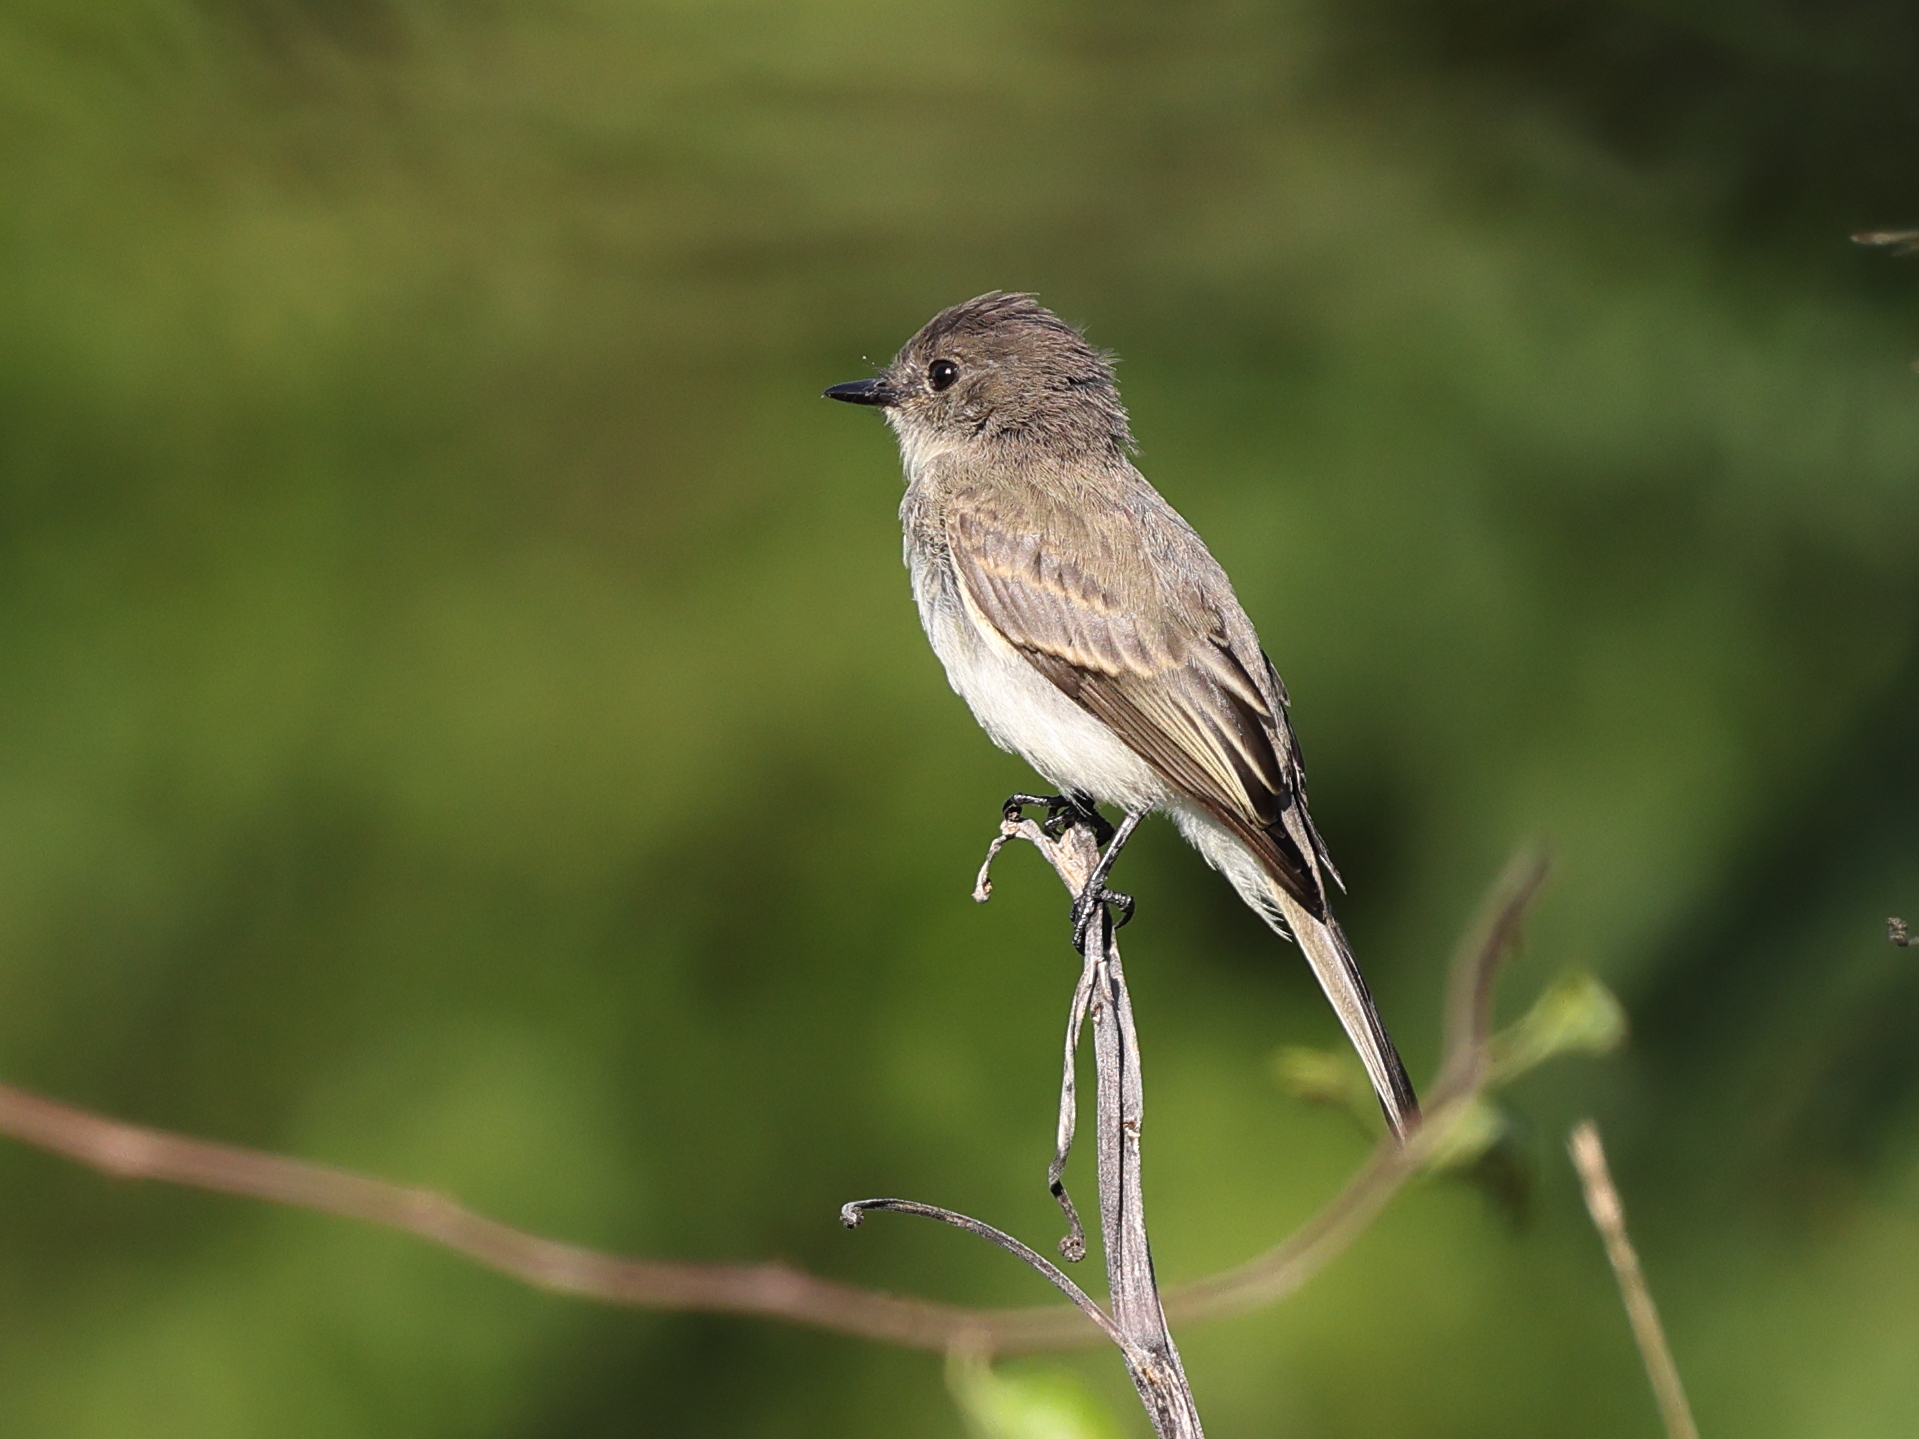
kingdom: Animalia
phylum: Chordata
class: Aves
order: Passeriformes
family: Tyrannidae
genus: Sayornis
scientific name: Sayornis phoebe
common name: Eastern phoebe
